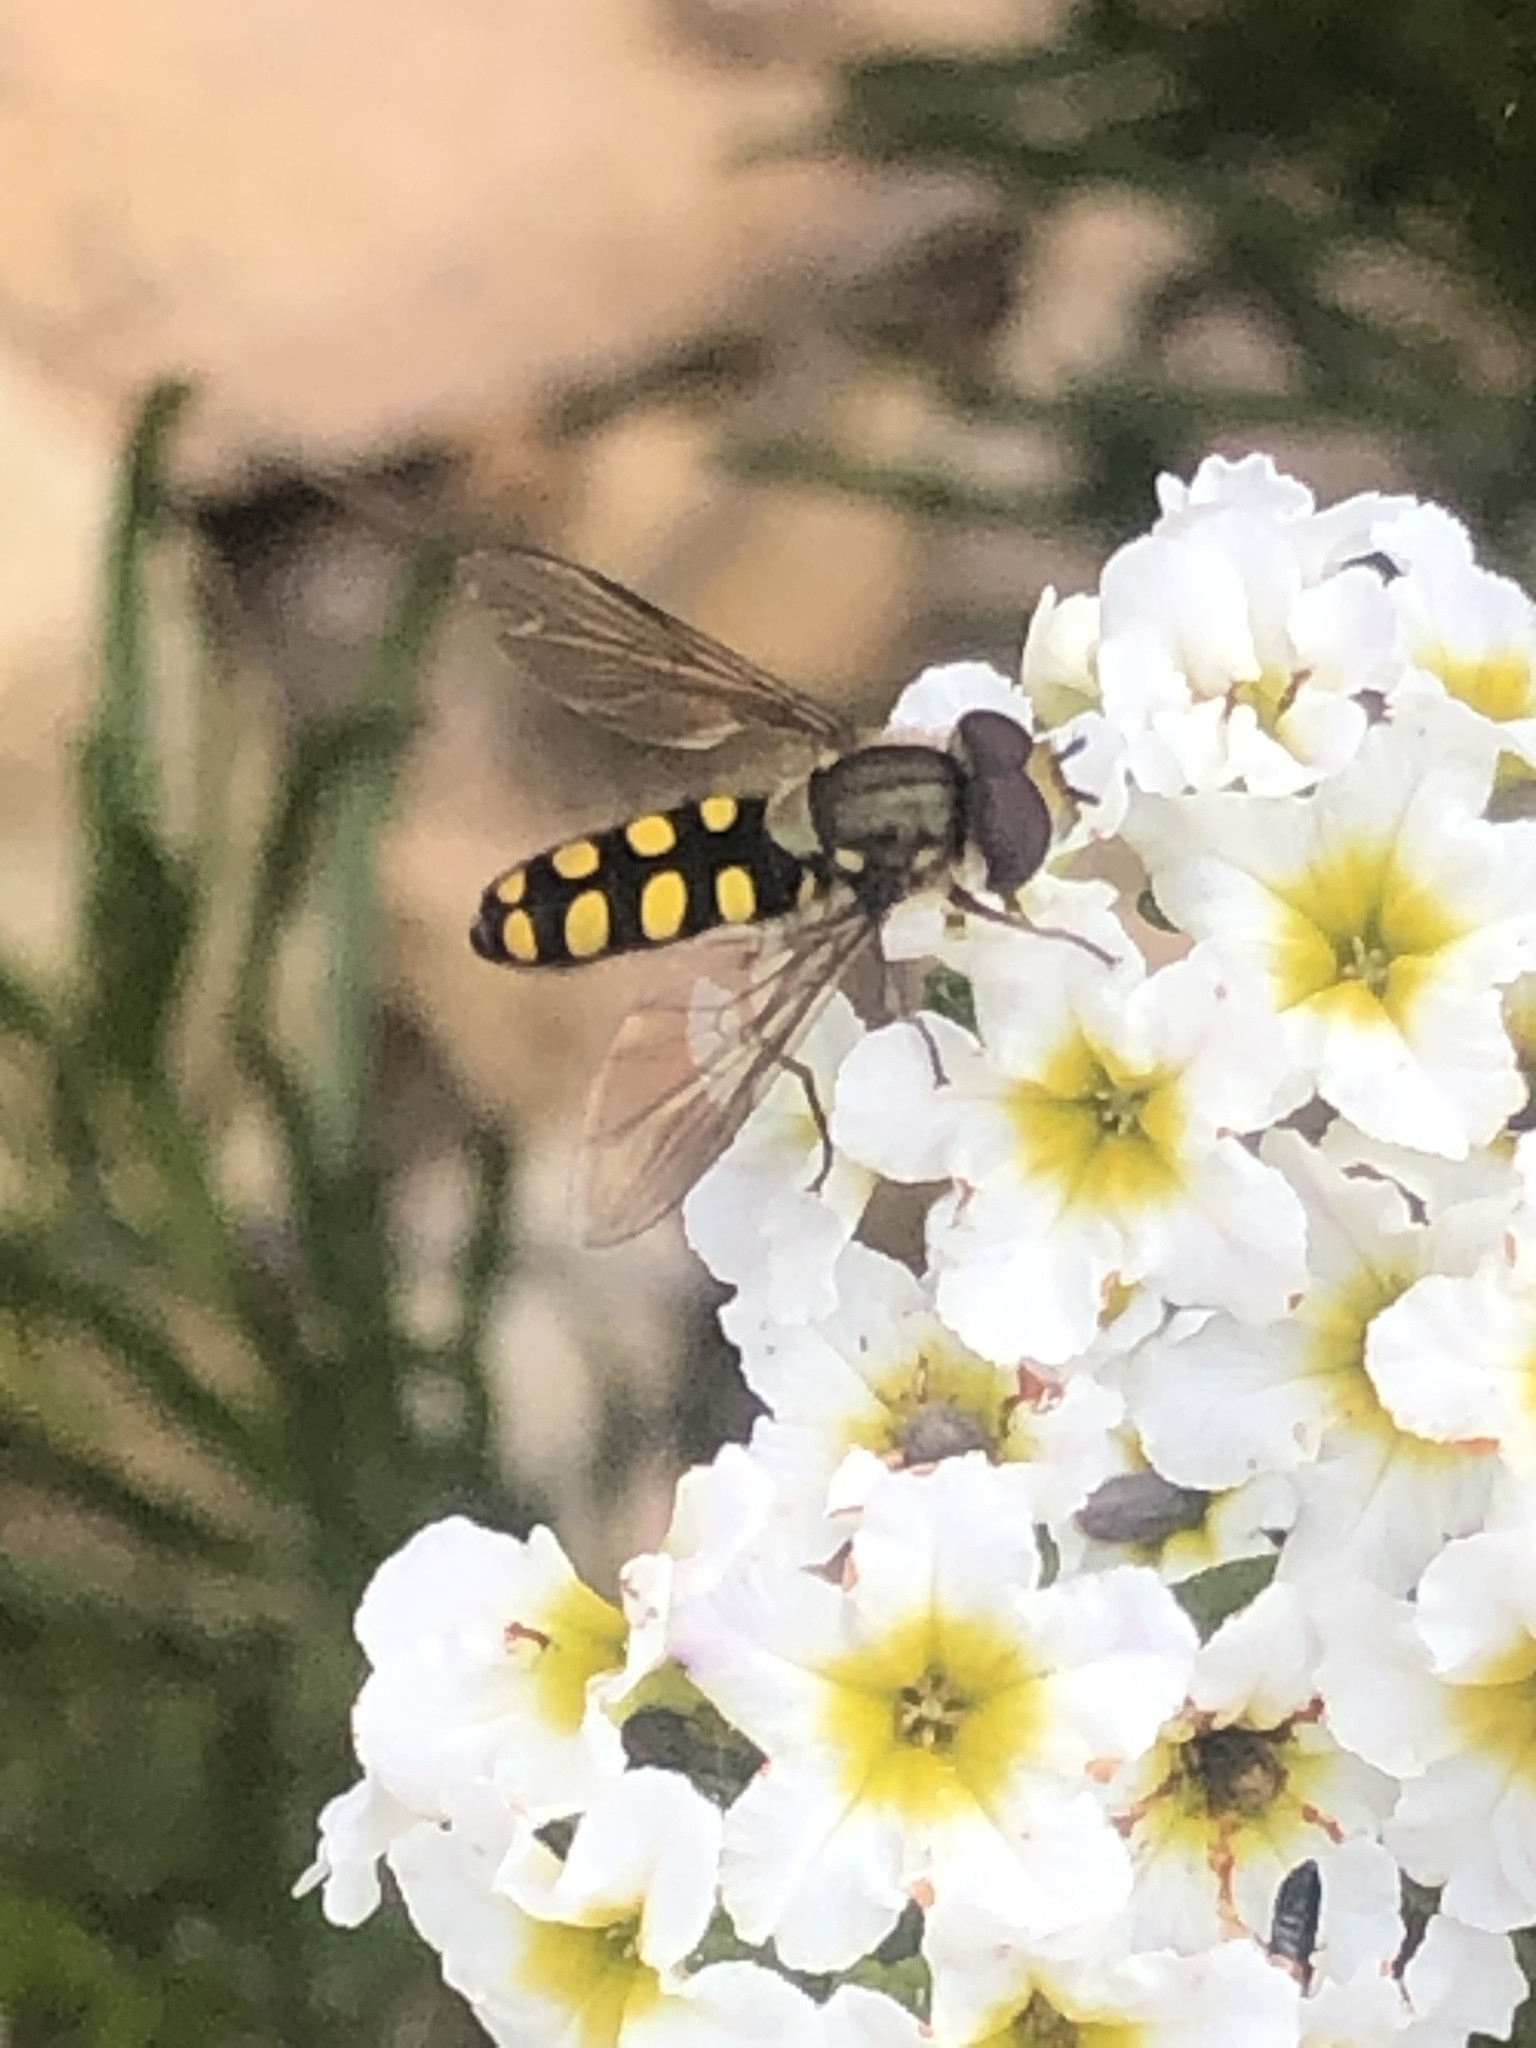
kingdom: Animalia
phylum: Arthropoda
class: Insecta
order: Diptera
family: Syrphidae
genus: Fazia
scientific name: Fazia decemmaculata
